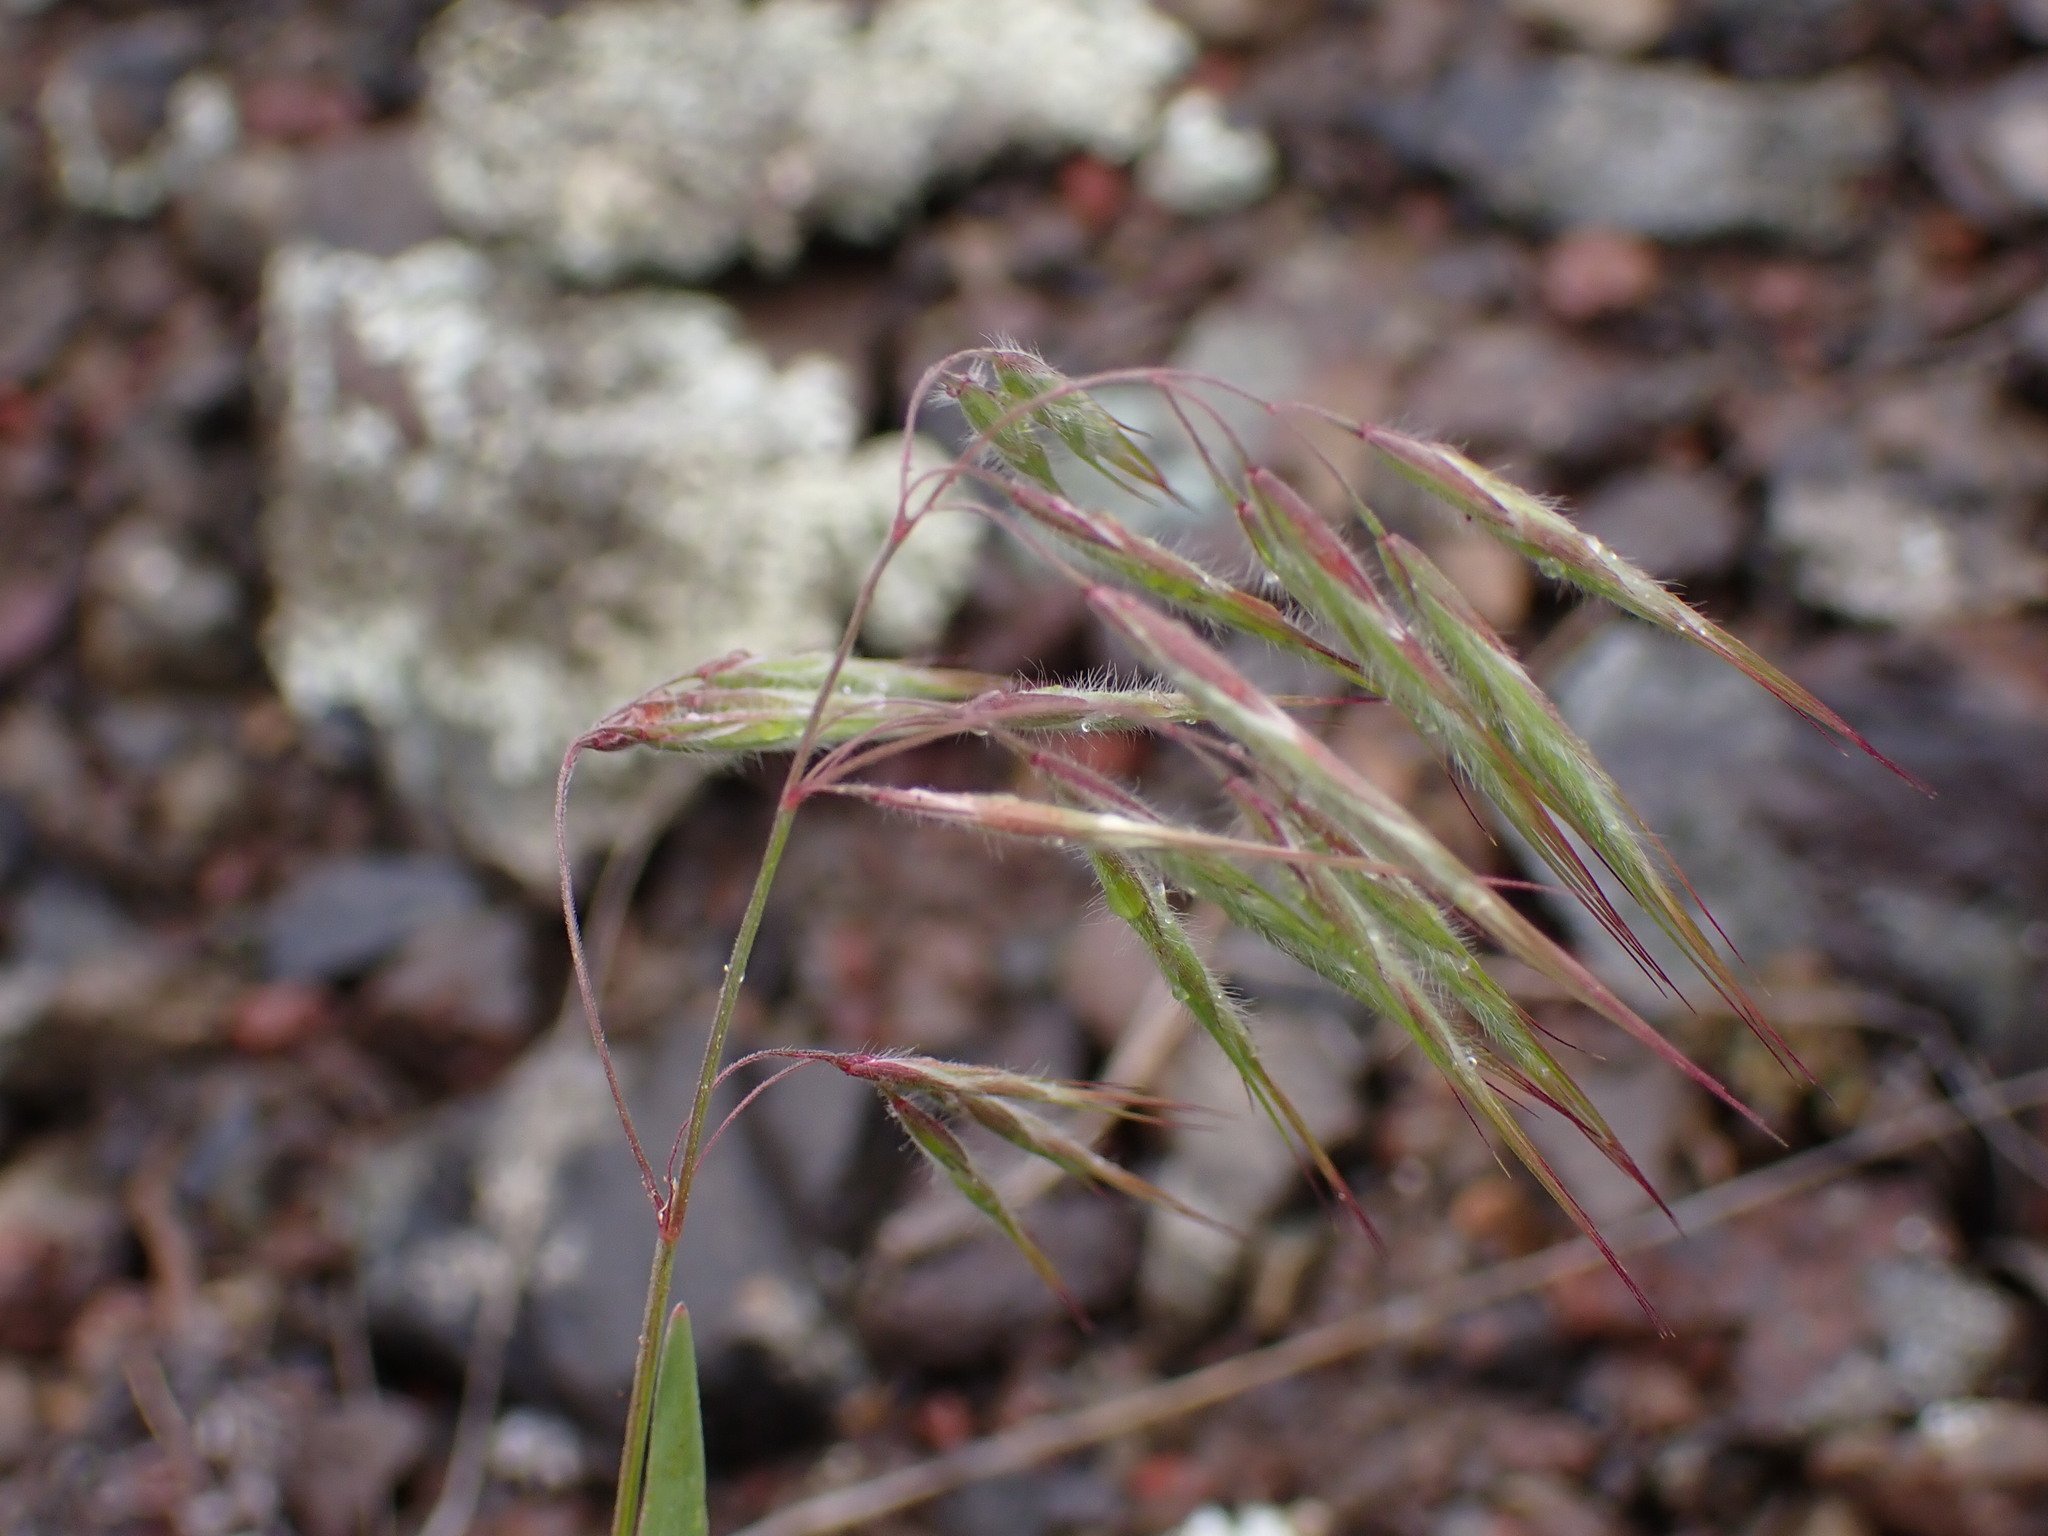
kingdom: Plantae
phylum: Tracheophyta
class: Liliopsida
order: Poales
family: Poaceae
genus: Bromus
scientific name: Bromus tectorum
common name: Cheatgrass
